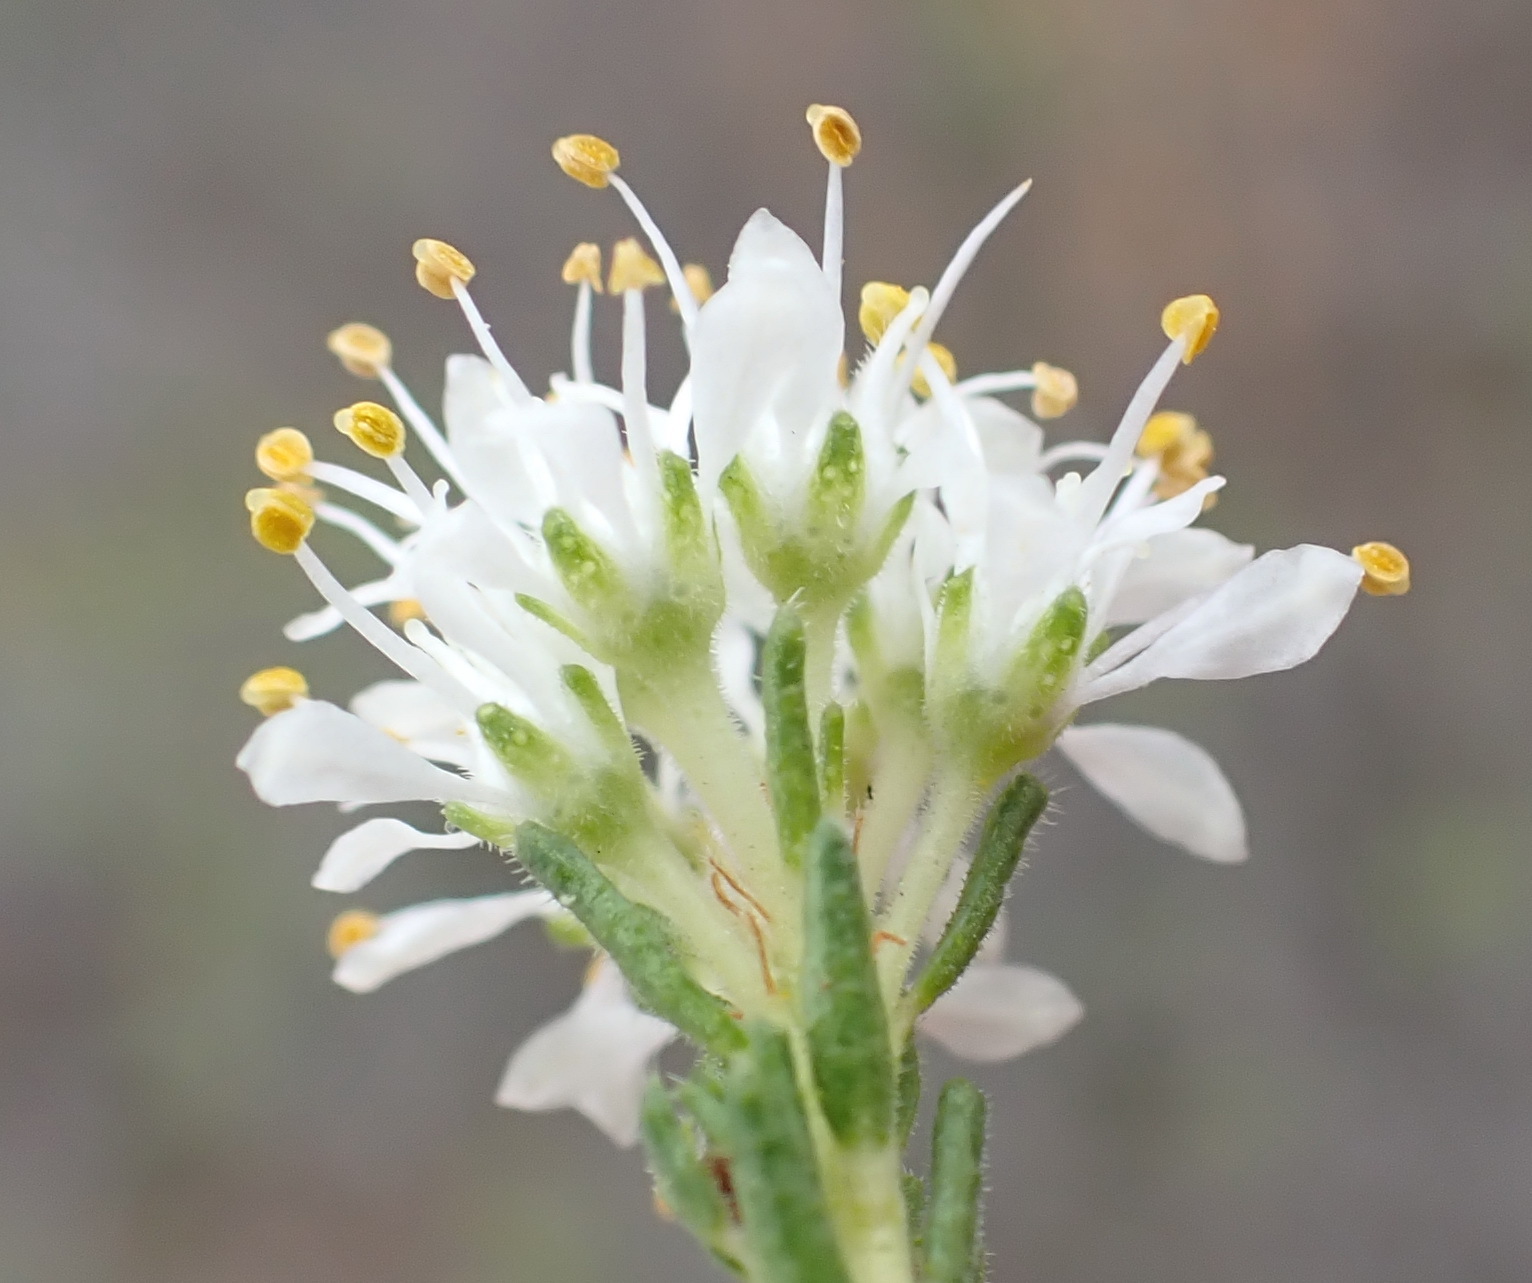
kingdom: Plantae
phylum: Tracheophyta
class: Magnoliopsida
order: Sapindales
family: Rutaceae
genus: Agathosma
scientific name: Agathosma capensis
